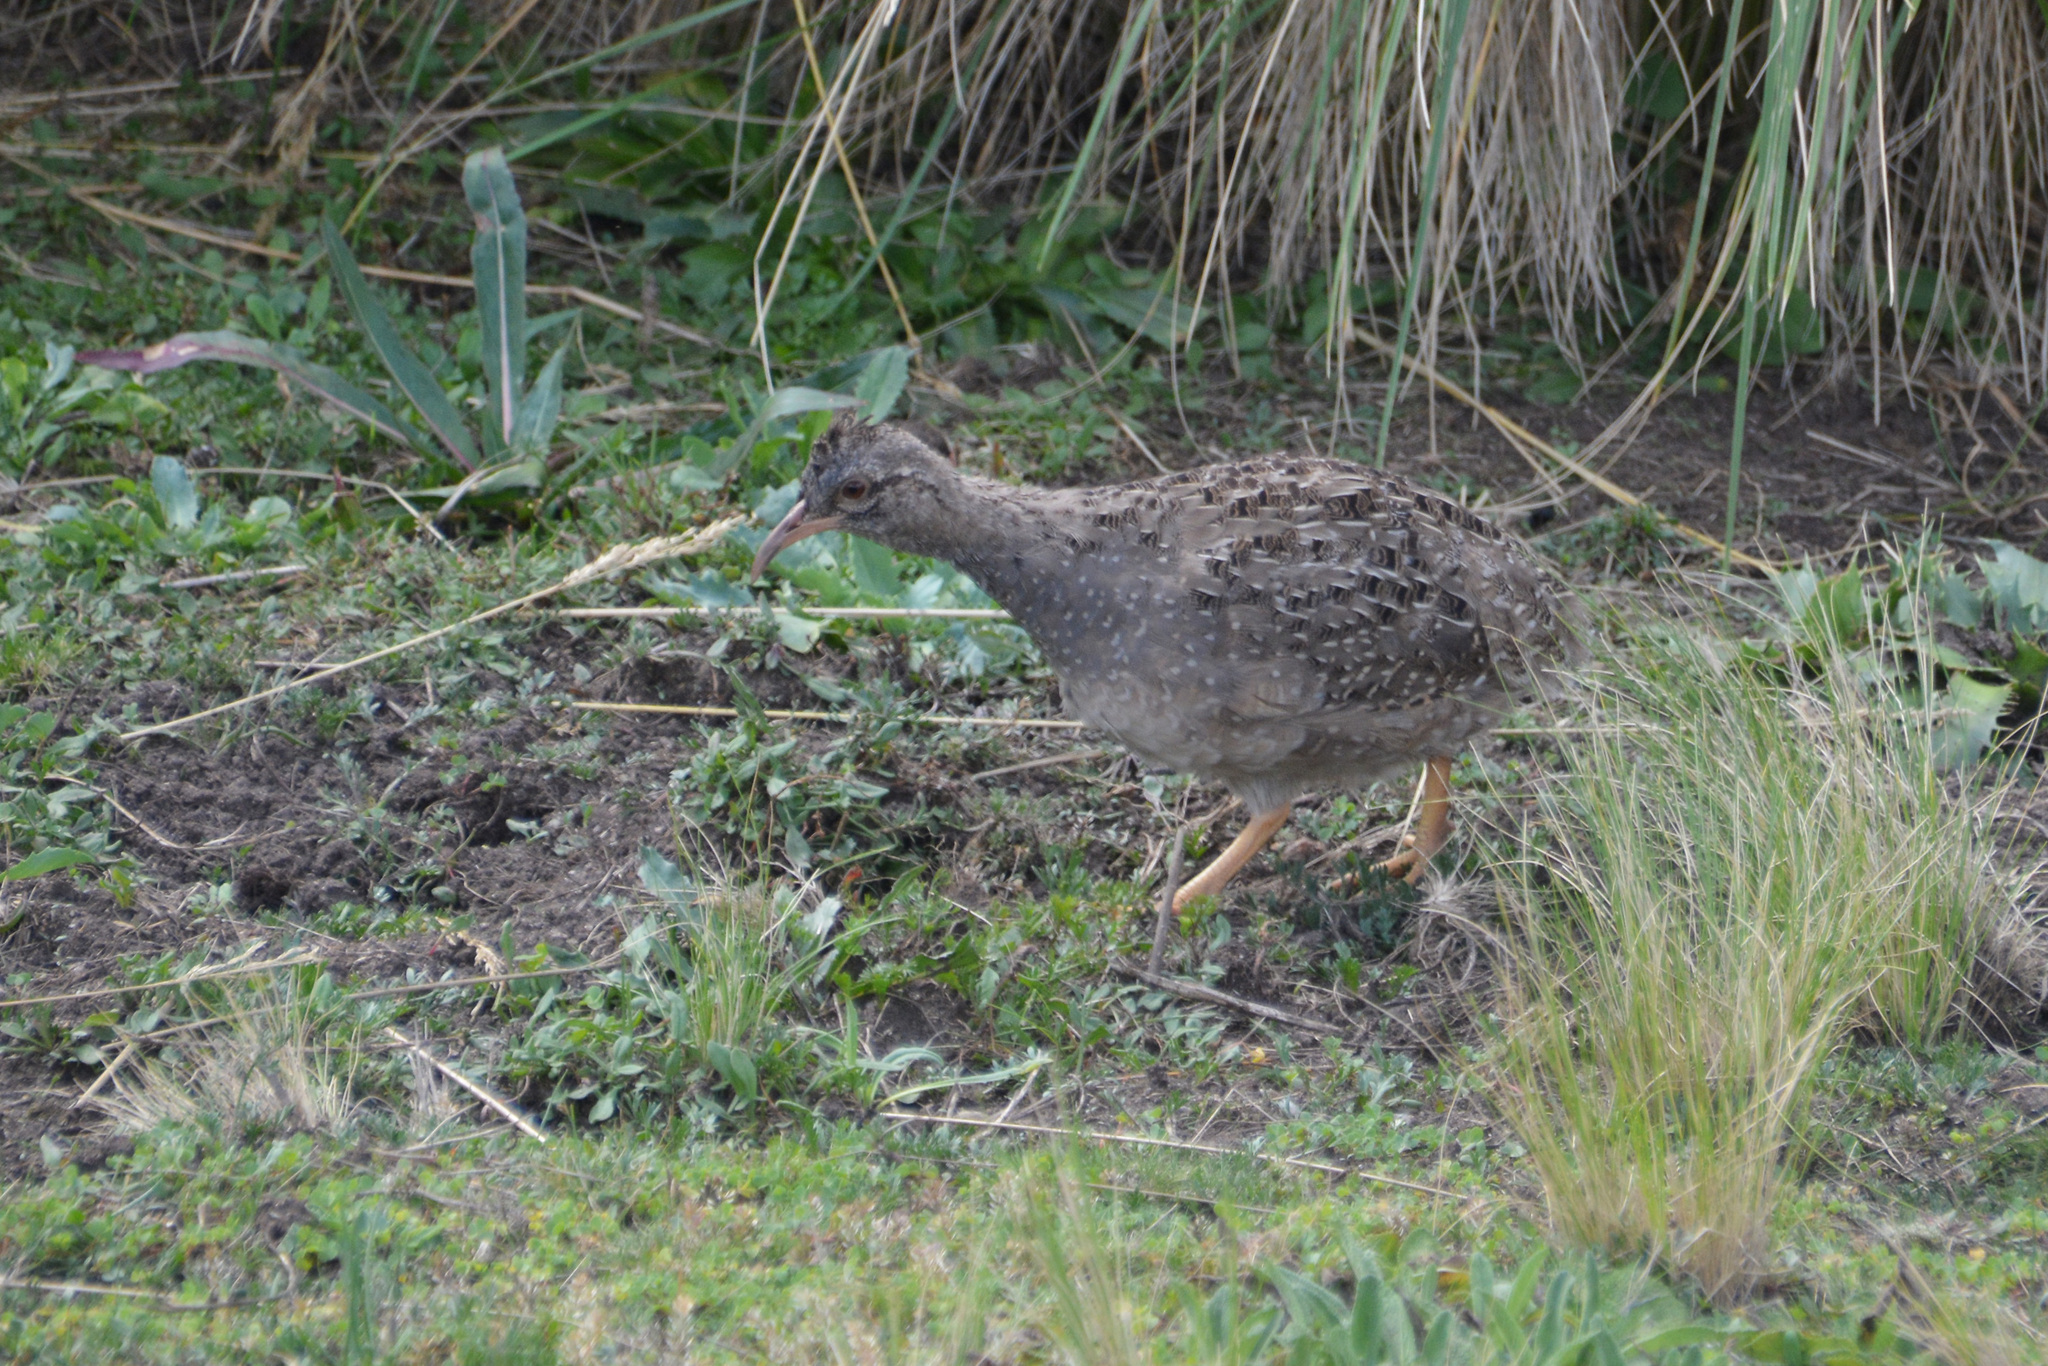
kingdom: Animalia
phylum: Chordata
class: Aves
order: Tinamiformes
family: Tinamidae
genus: Nothoprocta
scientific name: Nothoprocta pentlandii
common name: Andean tinamou
